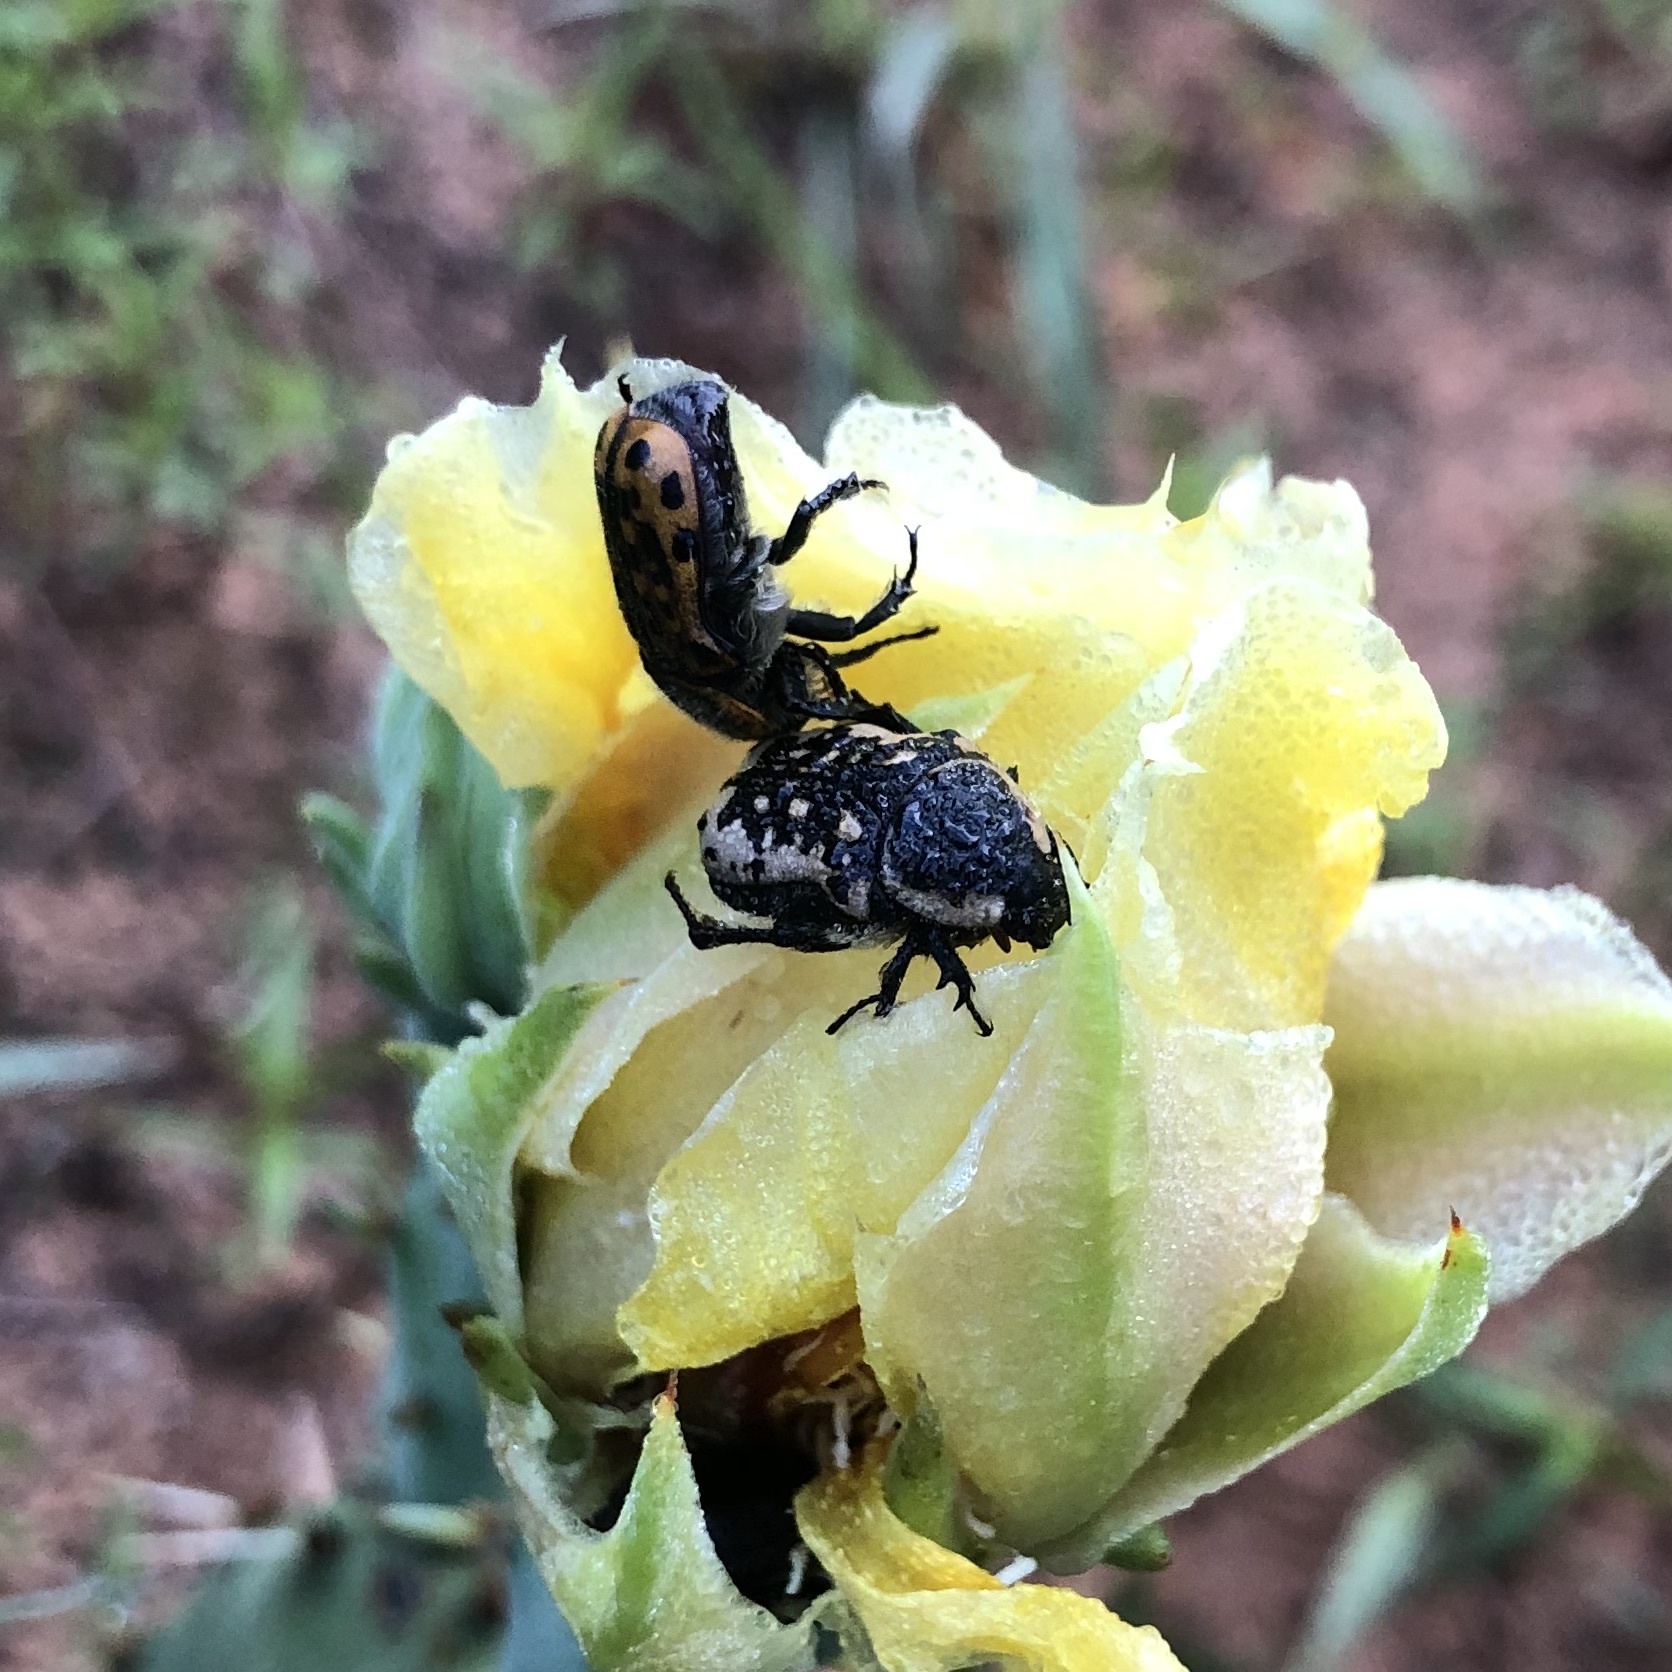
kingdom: Animalia
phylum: Arthropoda
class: Insecta
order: Coleoptera
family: Scarabaeidae
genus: Euphoria
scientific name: Euphoria kernii
